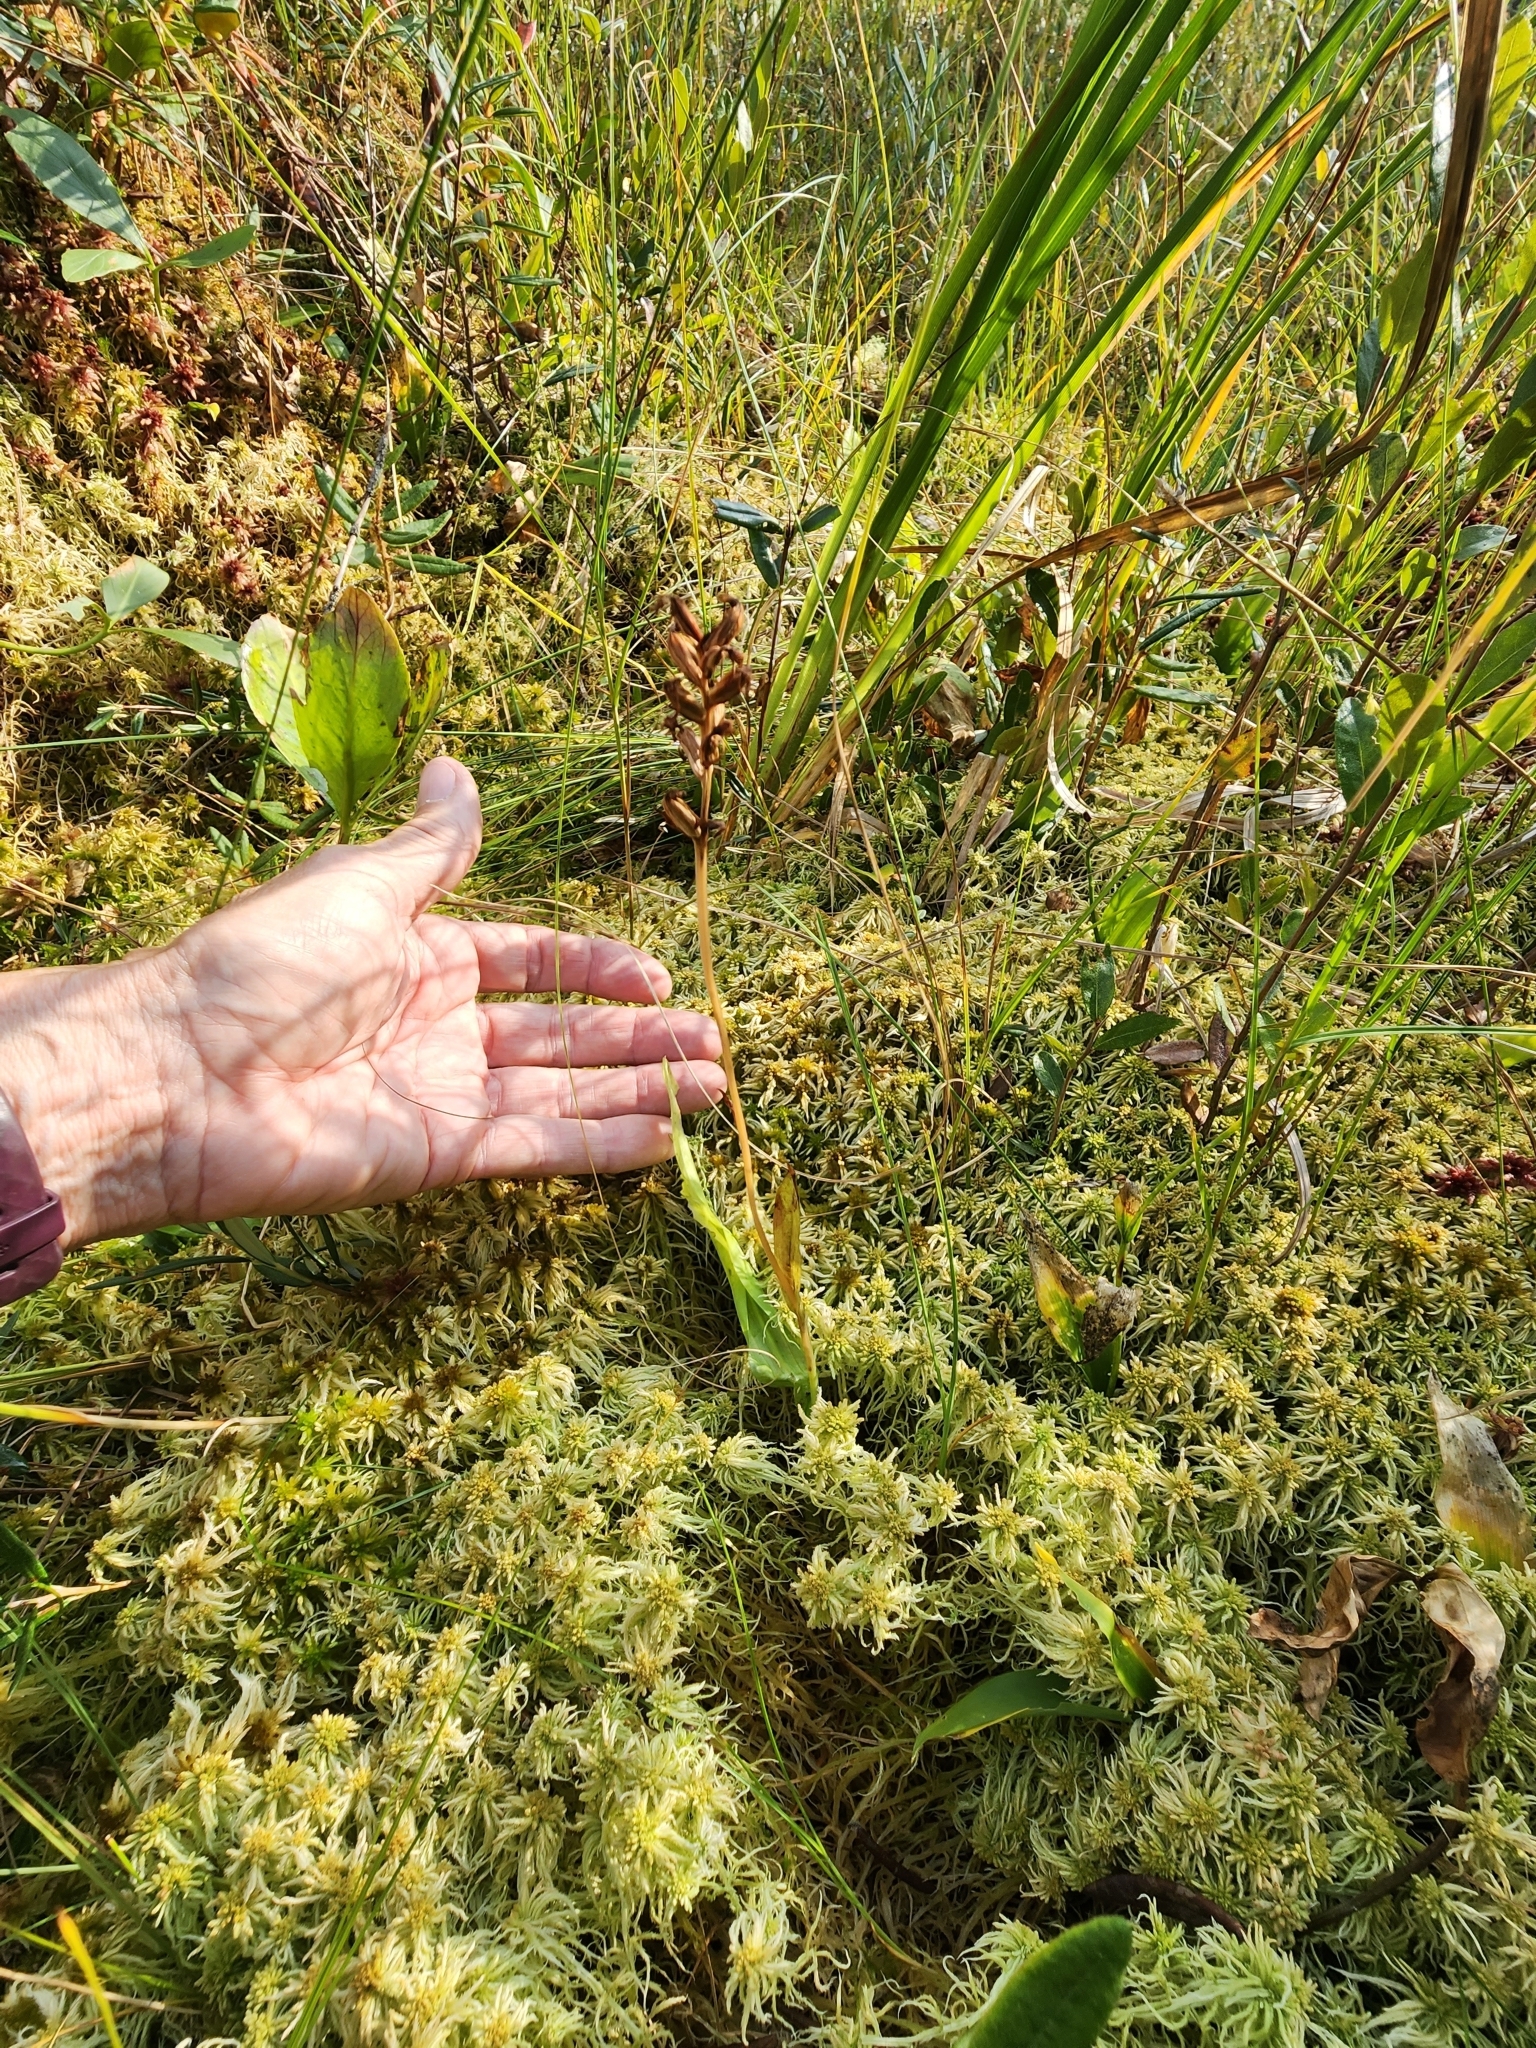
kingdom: Plantae
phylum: Tracheophyta
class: Liliopsida
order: Asparagales
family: Orchidaceae
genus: Platanthera
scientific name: Platanthera clavellata
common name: Club-spur orchid
